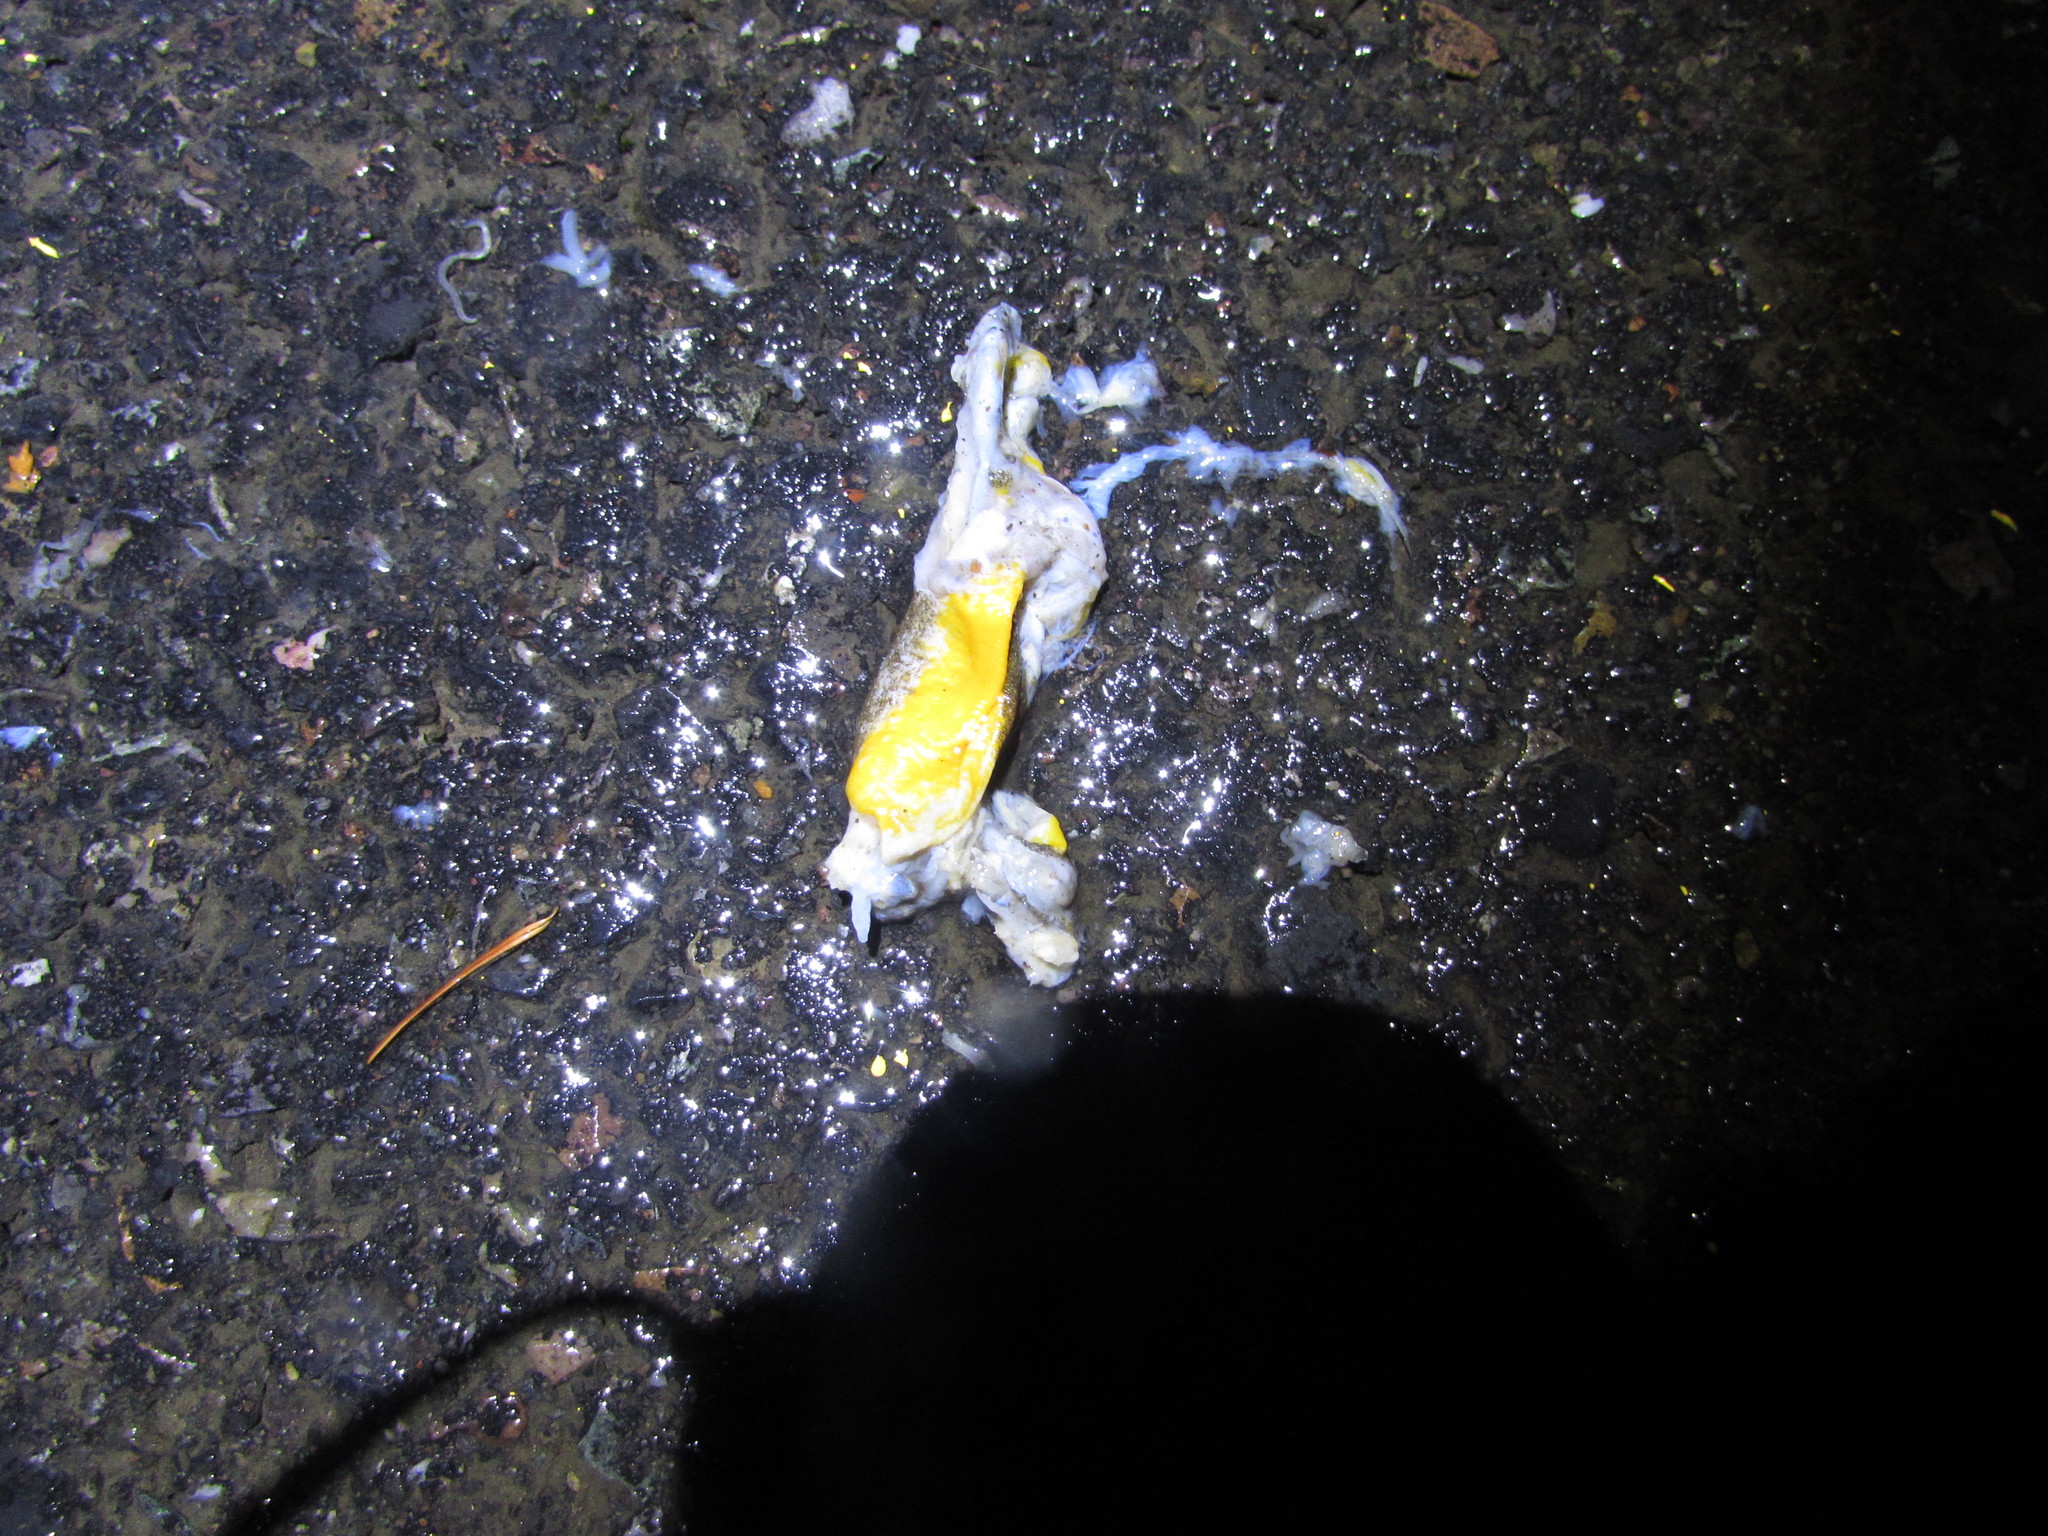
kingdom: Animalia
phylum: Chordata
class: Amphibia
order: Caudata
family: Salamandridae
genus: Taricha
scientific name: Taricha granulosa
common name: Roughskin newt
